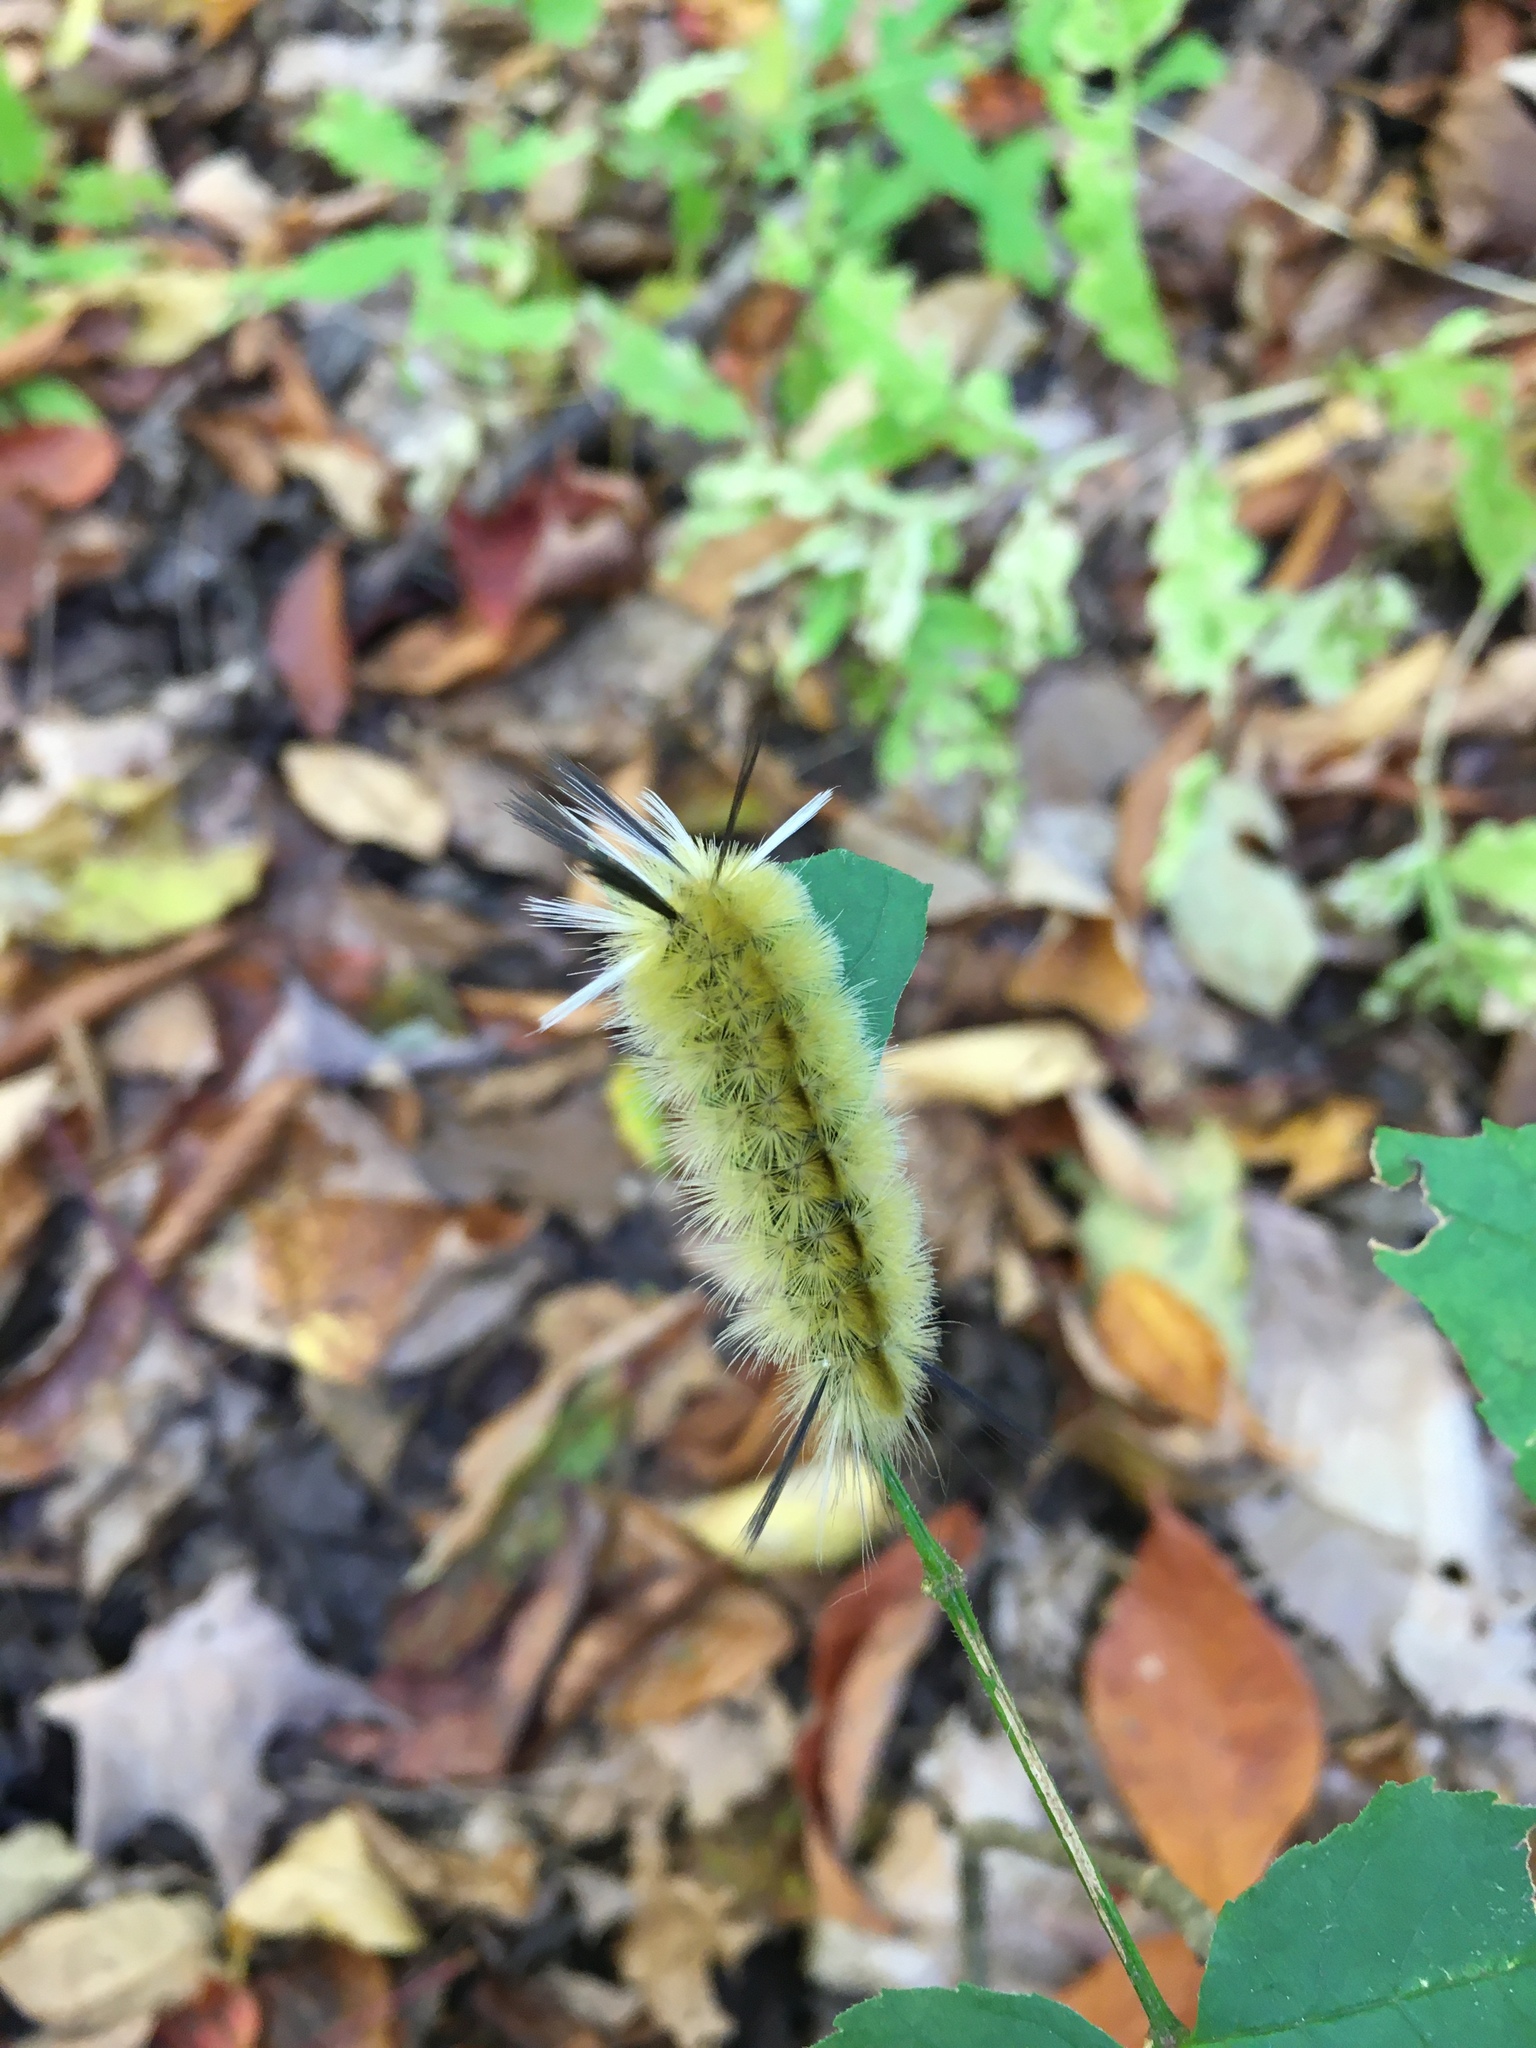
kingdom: Animalia
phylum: Arthropoda
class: Insecta
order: Lepidoptera
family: Erebidae
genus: Halysidota
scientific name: Halysidota tessellaris
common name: Banded tussock moth
